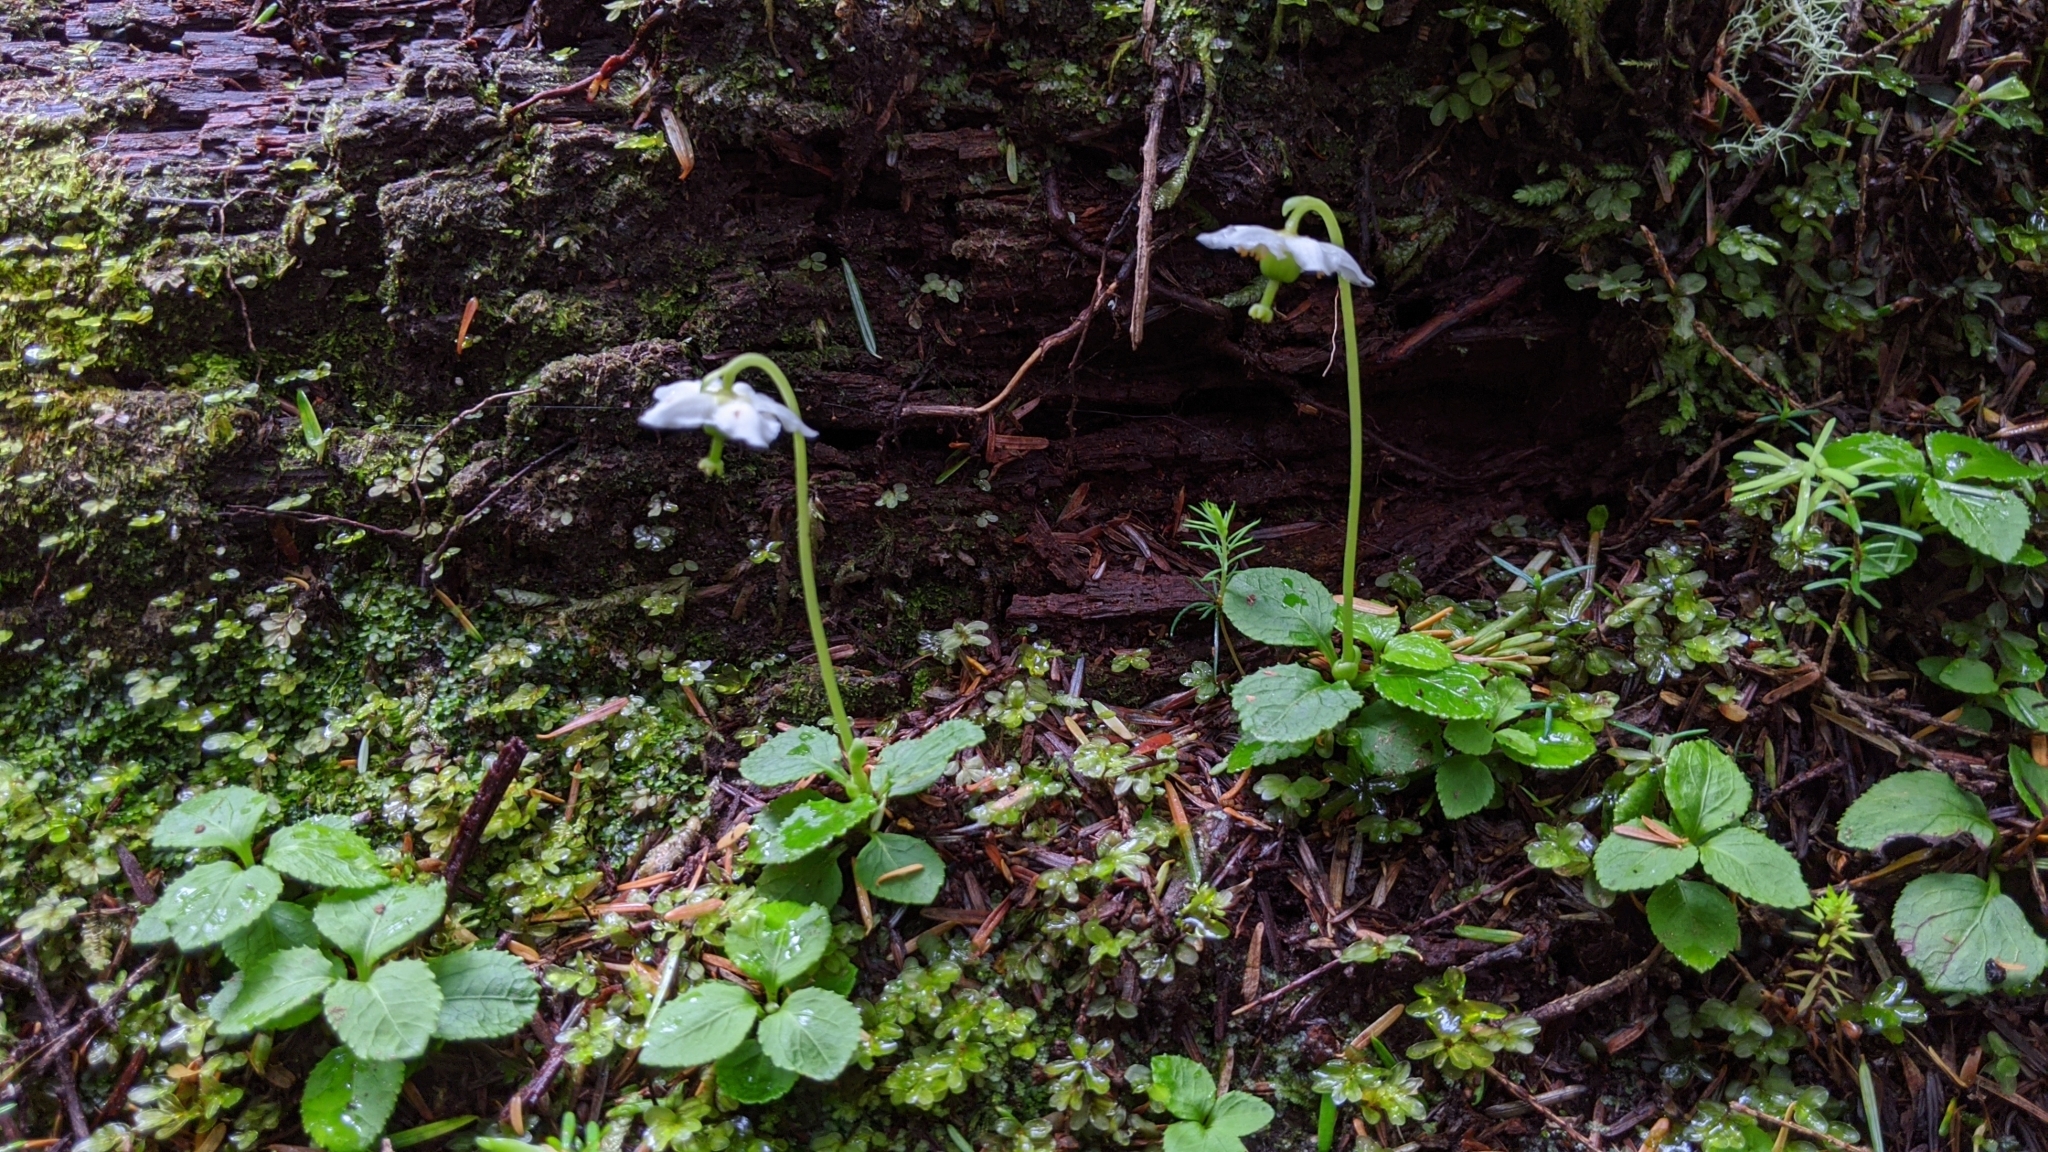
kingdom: Plantae
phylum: Tracheophyta
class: Magnoliopsida
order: Ericales
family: Ericaceae
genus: Moneses
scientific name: Moneses uniflora
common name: One-flowered wintergreen
